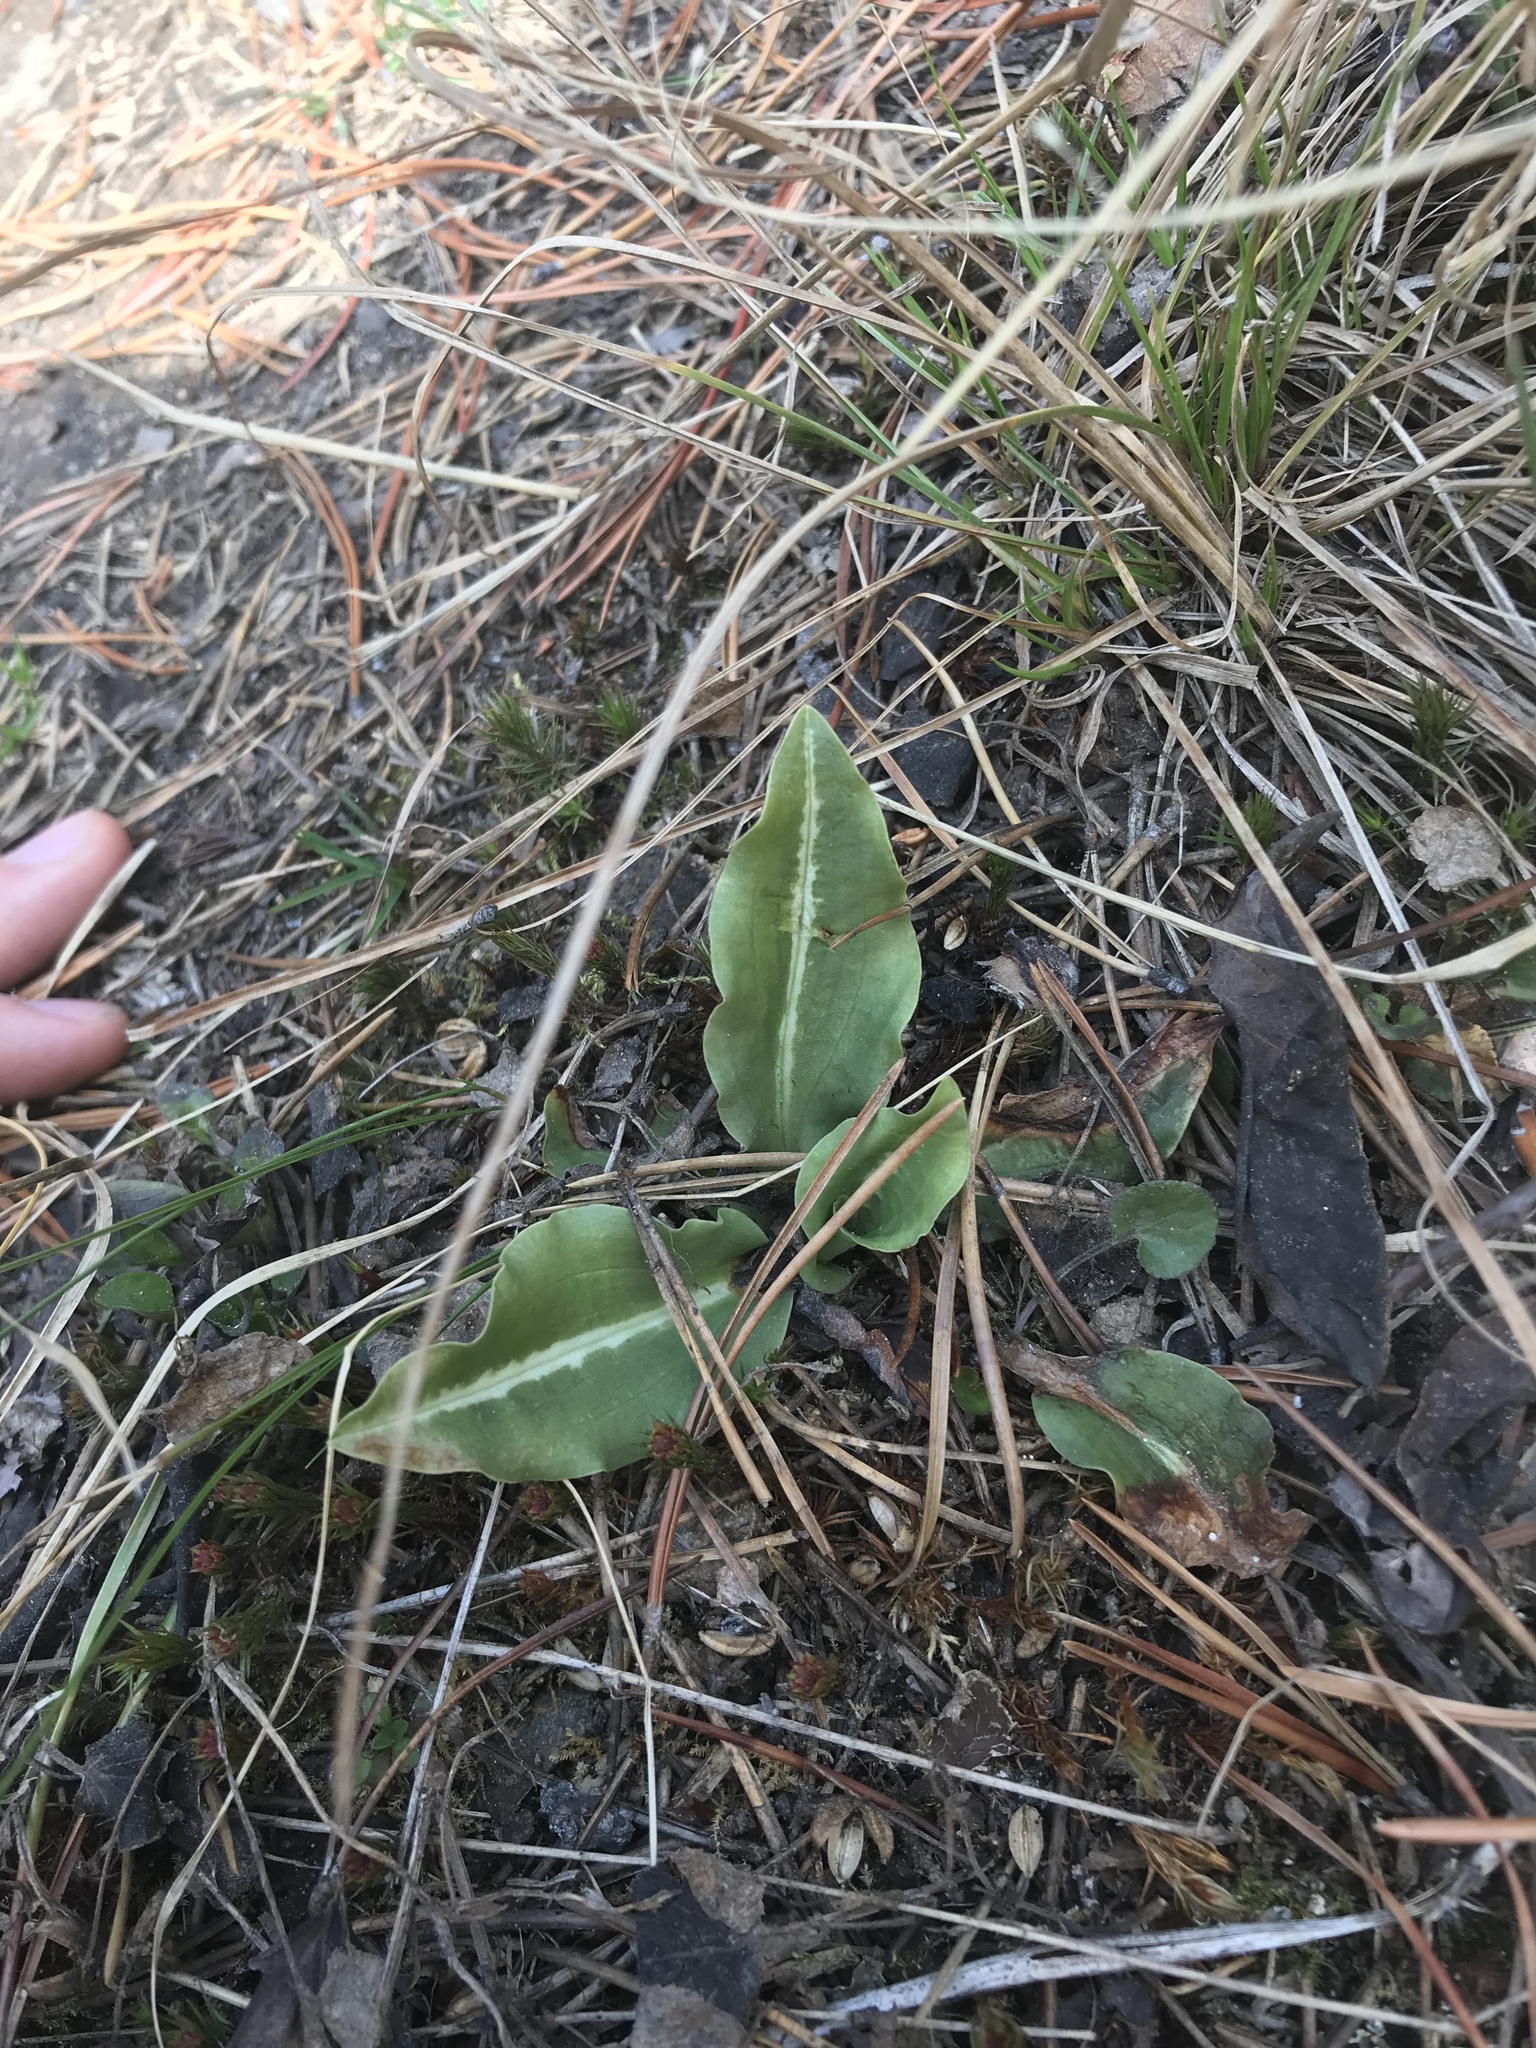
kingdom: Plantae
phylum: Tracheophyta
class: Liliopsida
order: Asparagales
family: Orchidaceae
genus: Goodyera
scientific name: Goodyera oblongifolia
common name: Giant rattlesnake-plantain
